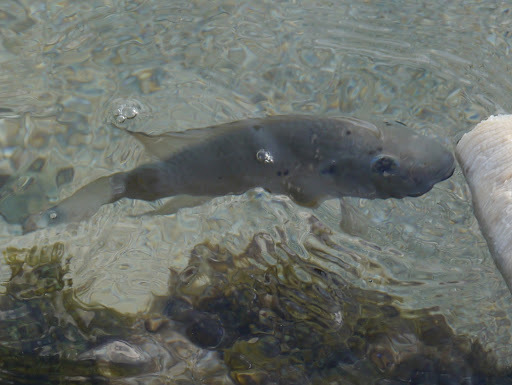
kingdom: Animalia
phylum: Chordata
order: Perciformes
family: Cichlidae
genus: Sarotherodon
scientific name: Sarotherodon melanotheron
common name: Blackchin tilapia
